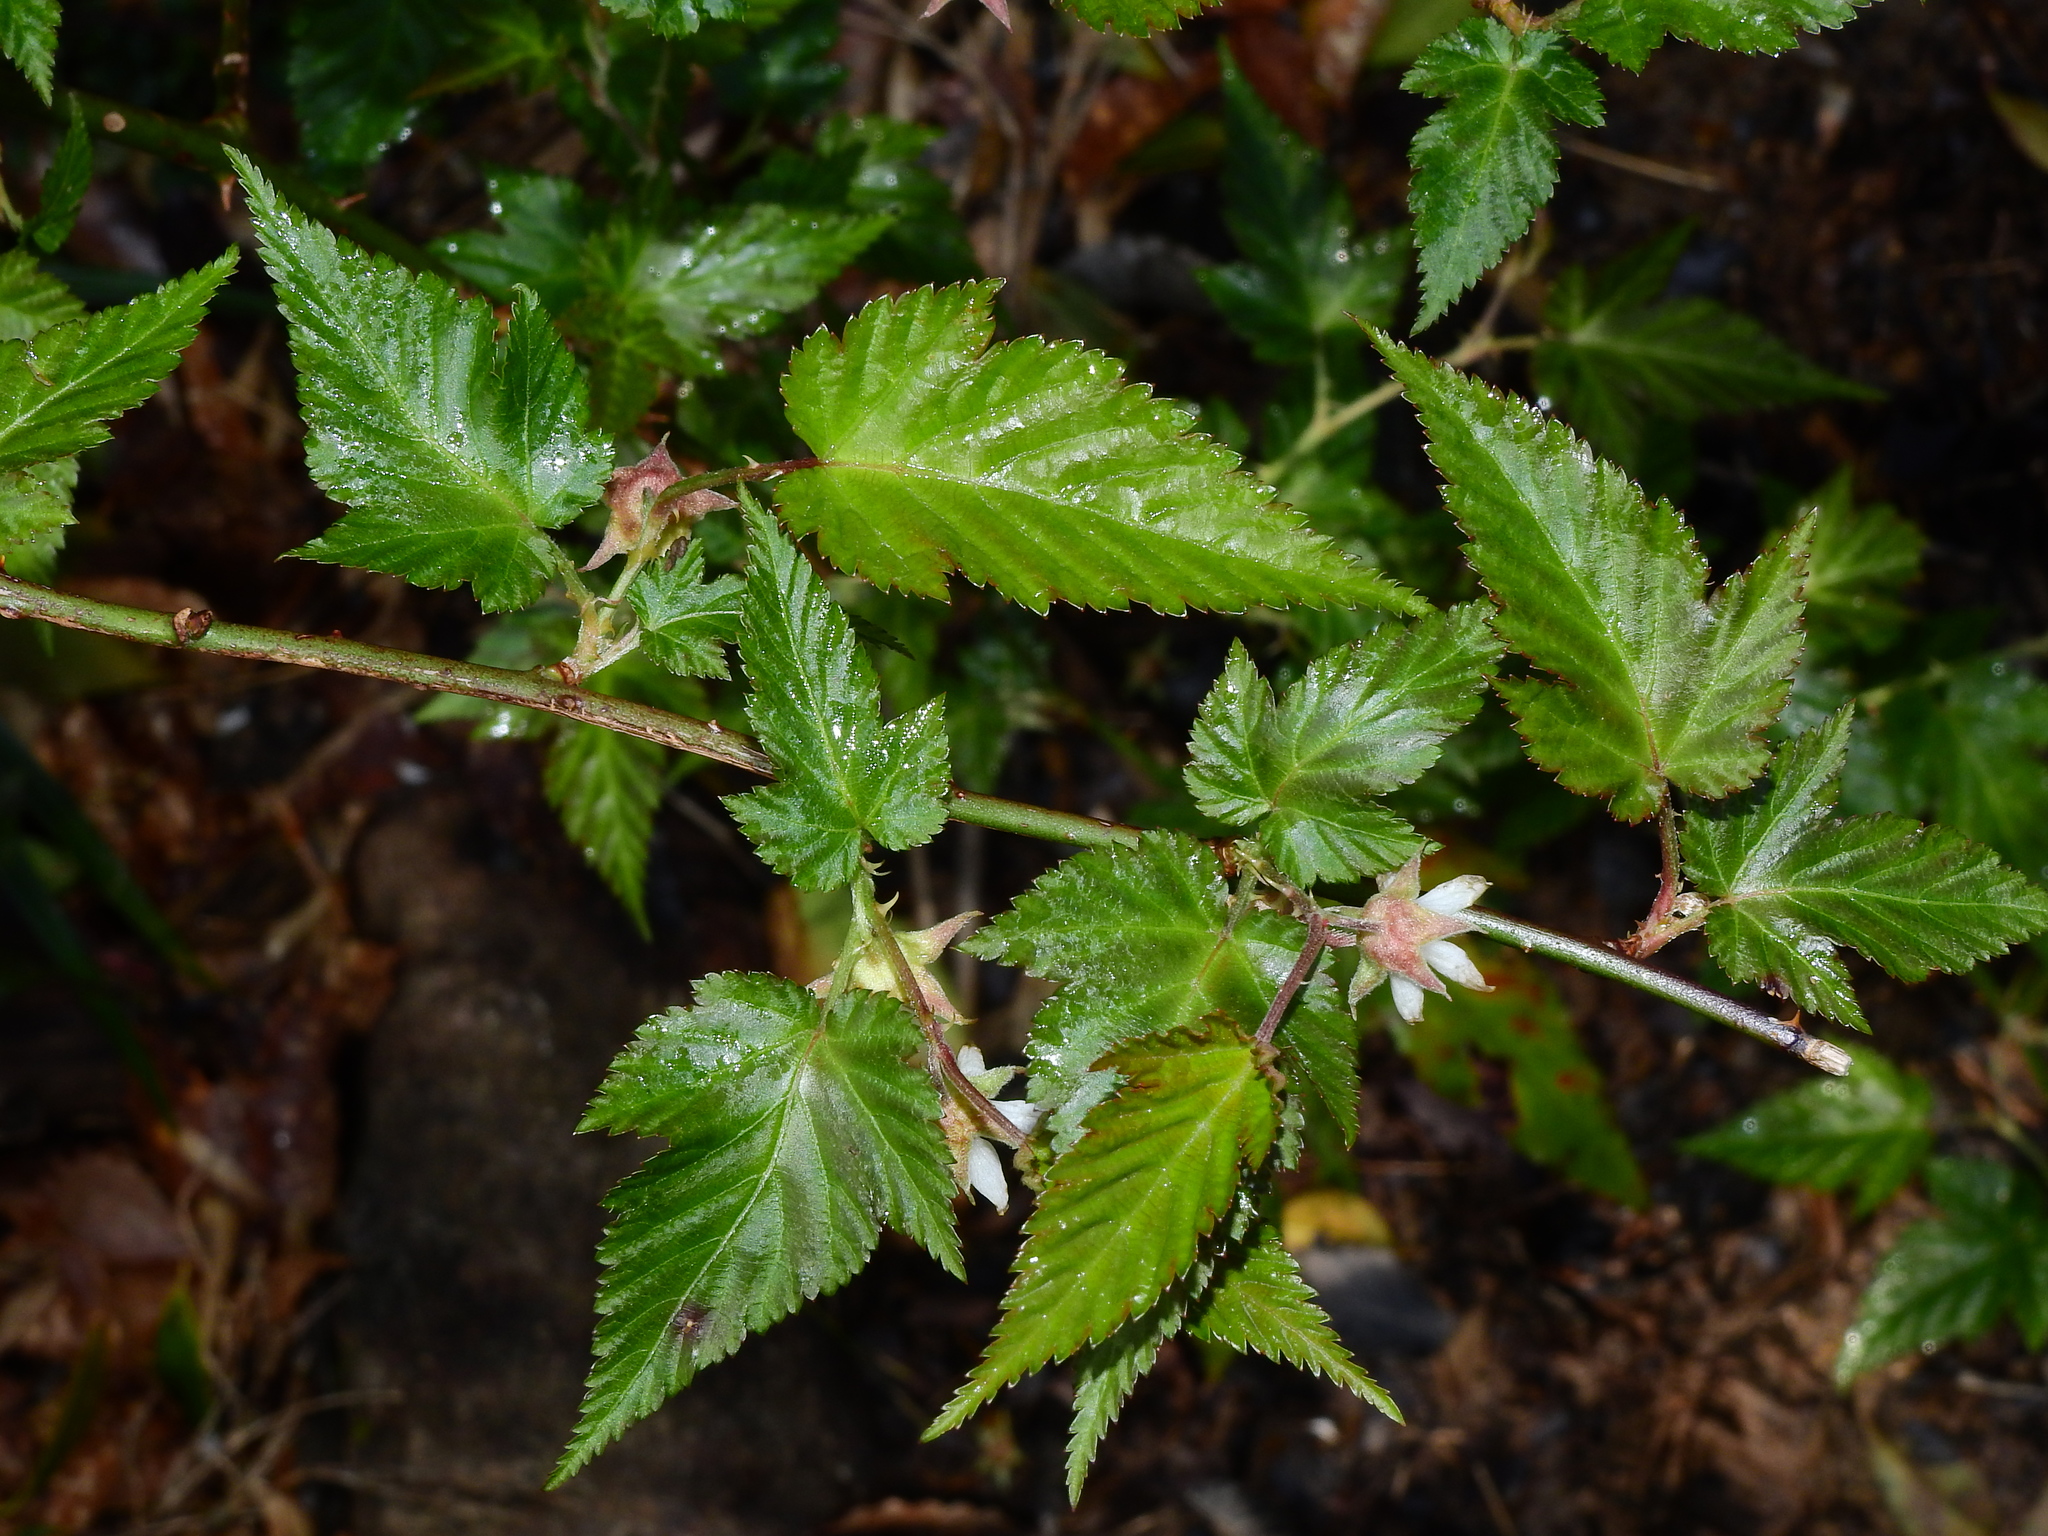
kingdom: Plantae
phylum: Tracheophyta
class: Magnoliopsida
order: Rosales
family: Rosaceae
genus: Rubus
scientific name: Rubus corchorifolius
